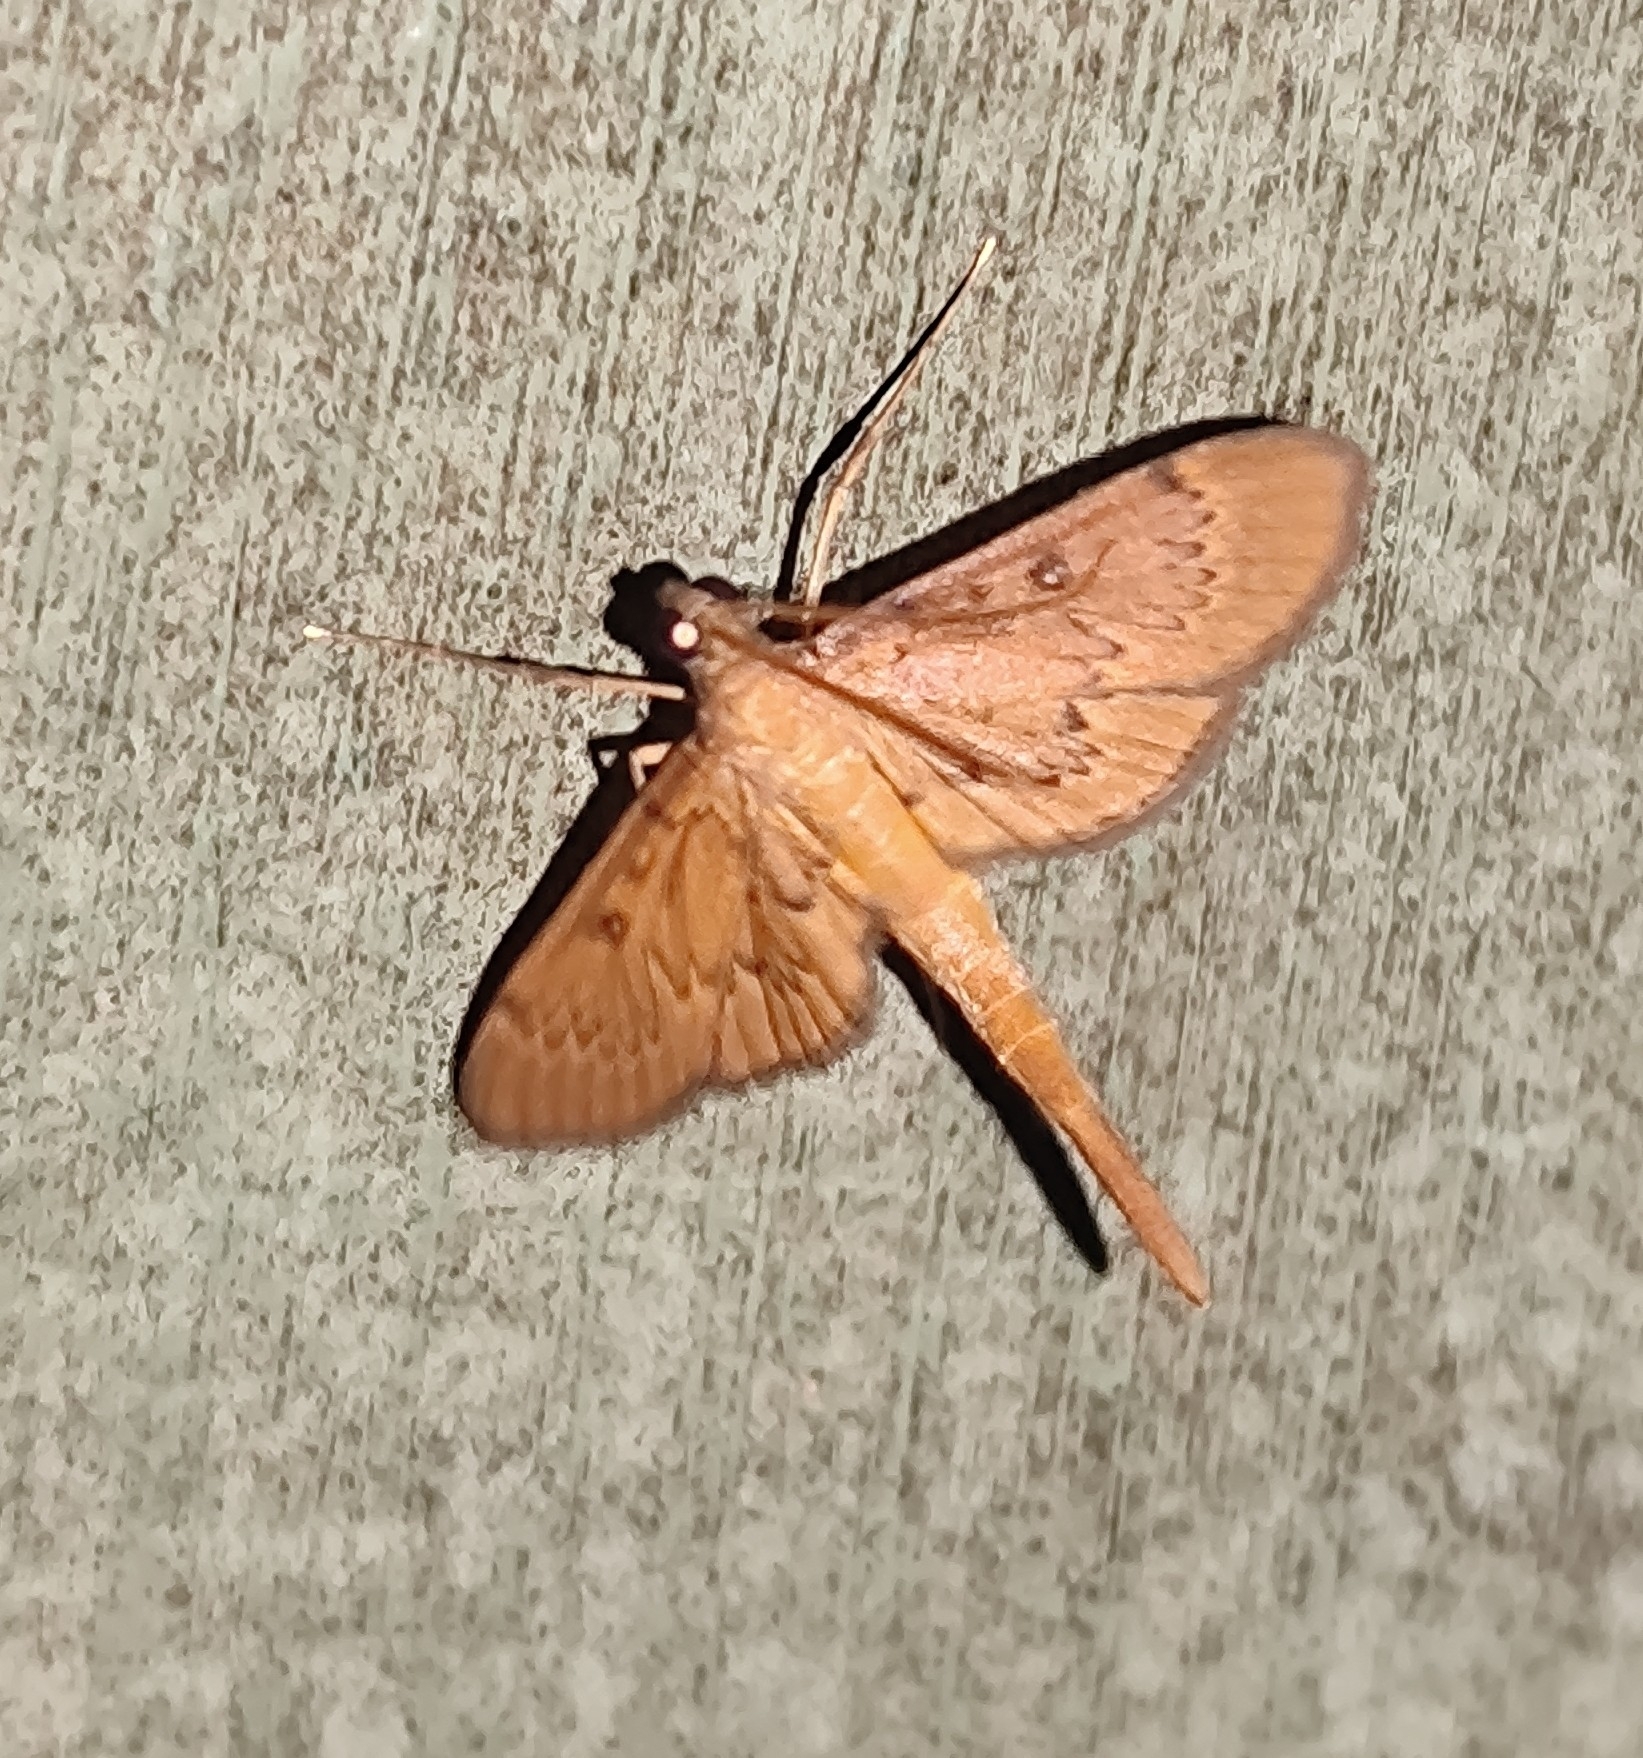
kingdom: Animalia
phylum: Arthropoda
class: Insecta
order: Lepidoptera
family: Crambidae
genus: Hymenoptychis
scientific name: Hymenoptychis sordida
